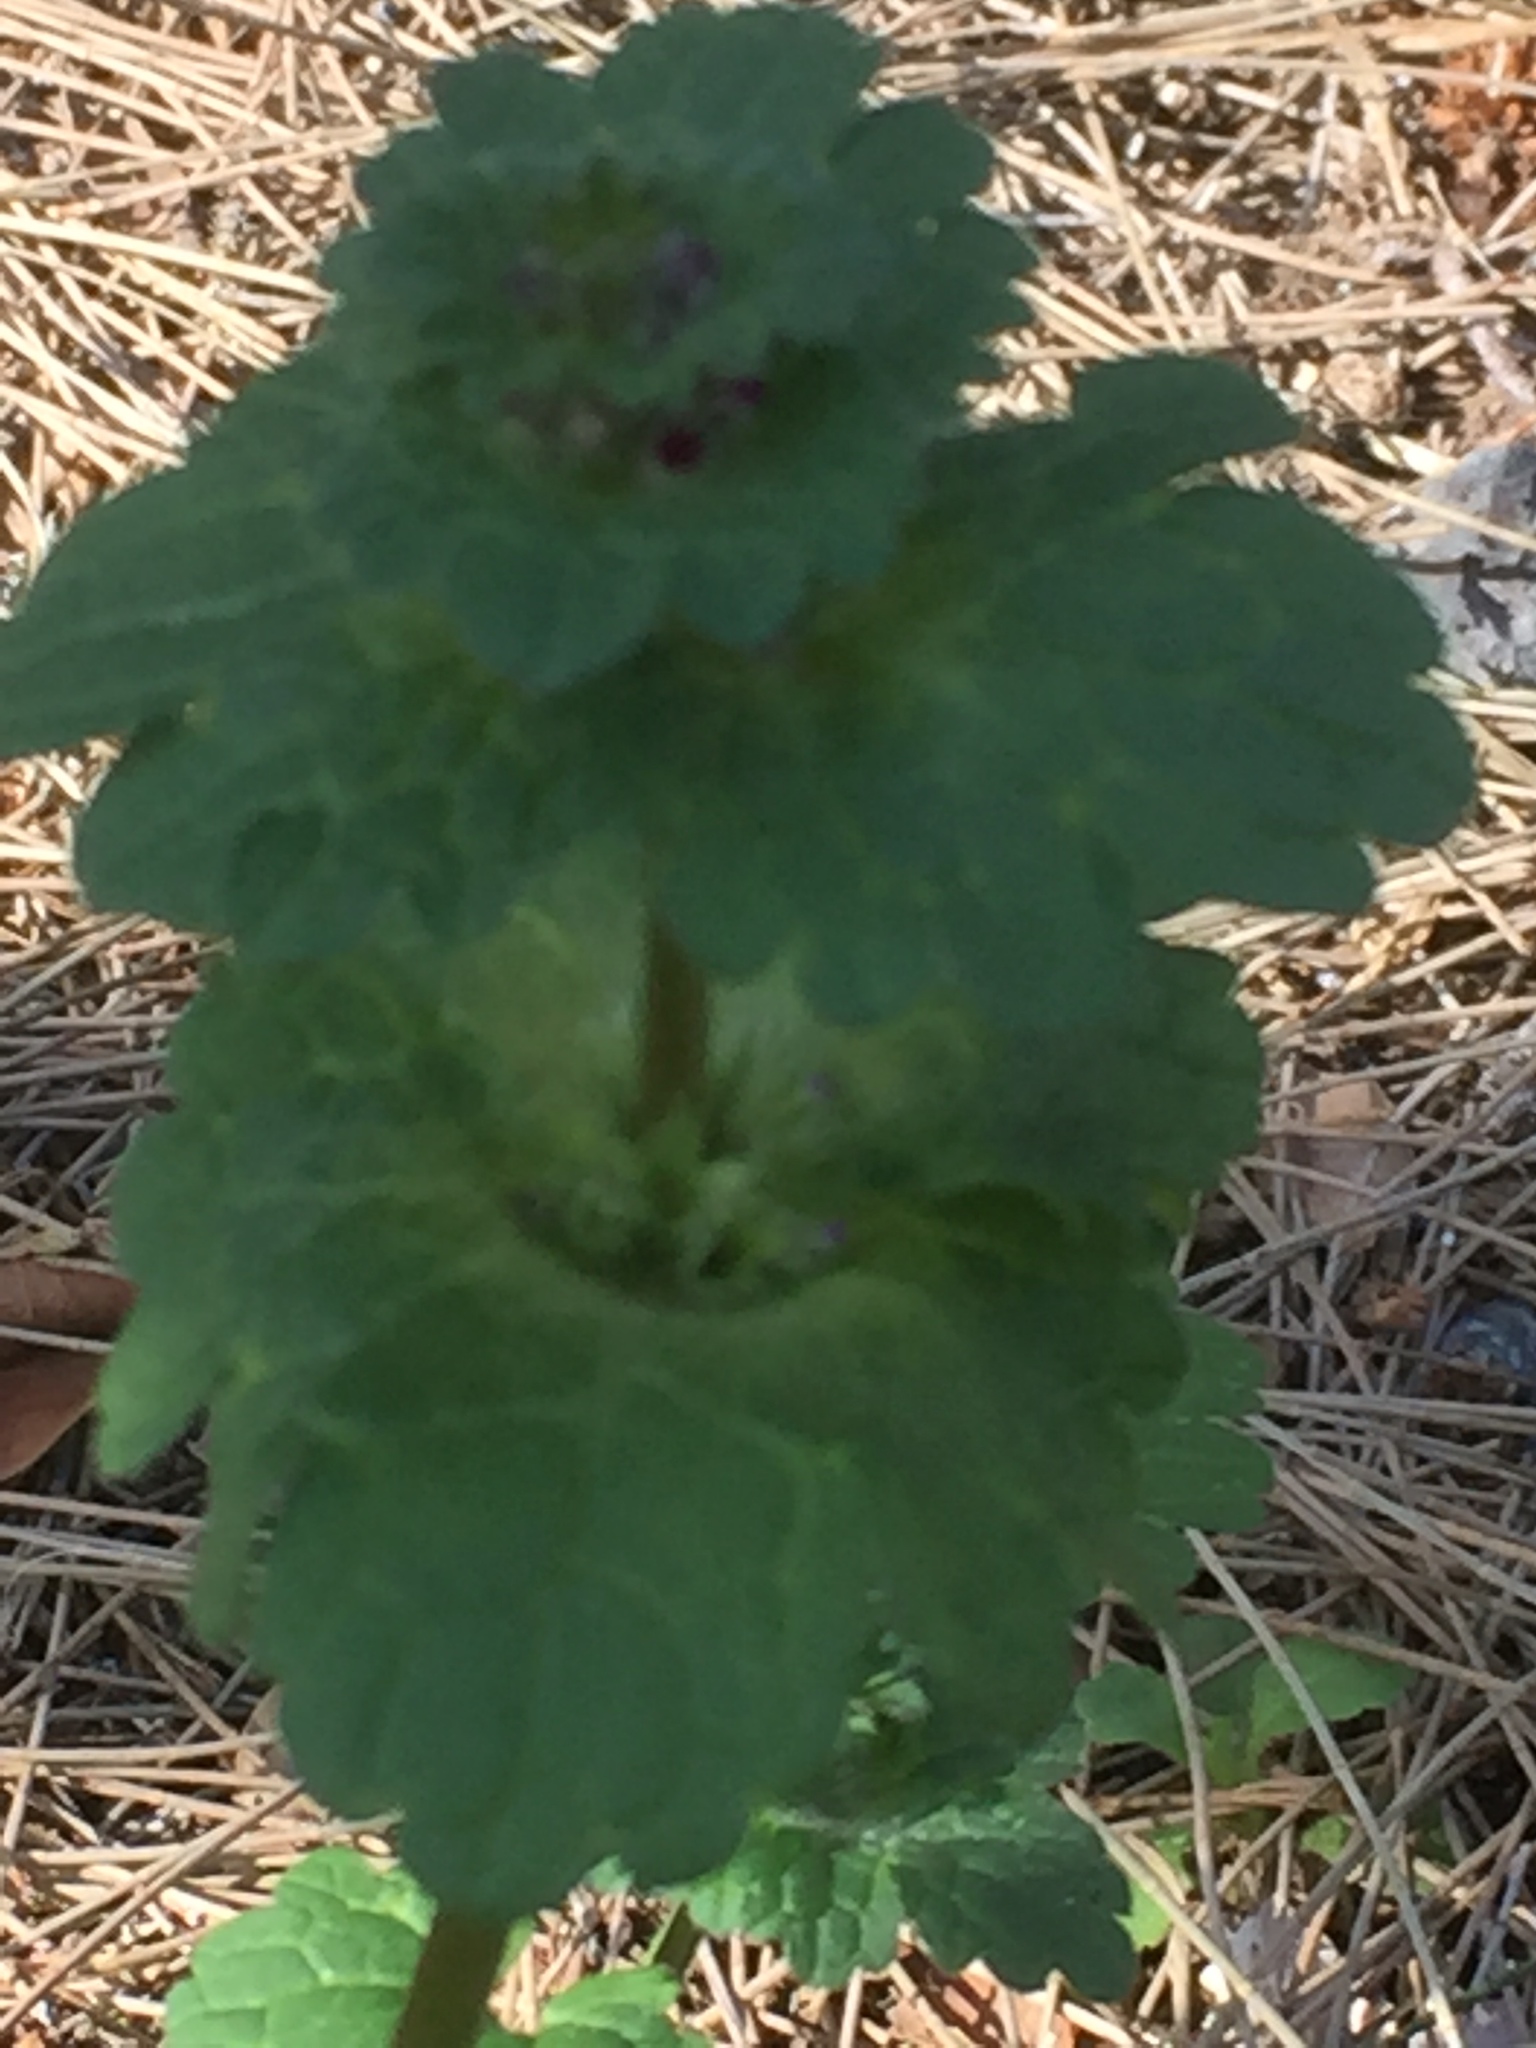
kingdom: Plantae
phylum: Tracheophyta
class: Magnoliopsida
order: Lamiales
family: Lamiaceae
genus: Lamium
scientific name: Lamium amplexicaule
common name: Henbit dead-nettle
